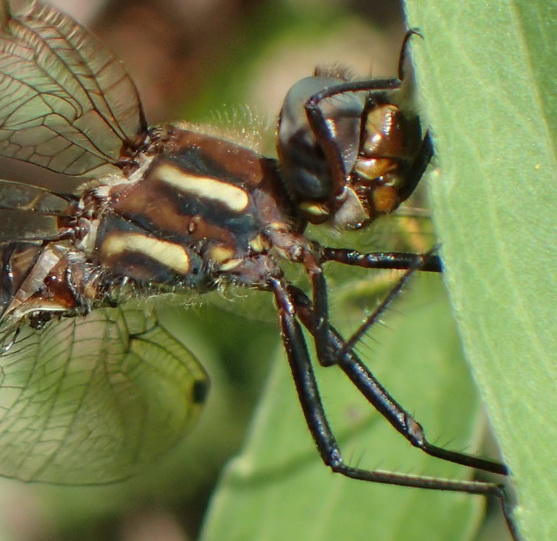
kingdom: Animalia
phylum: Arthropoda
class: Insecta
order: Odonata
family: Synthemistidae
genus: Syncordulia
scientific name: Syncordulia gracilis
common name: Yellow presba
